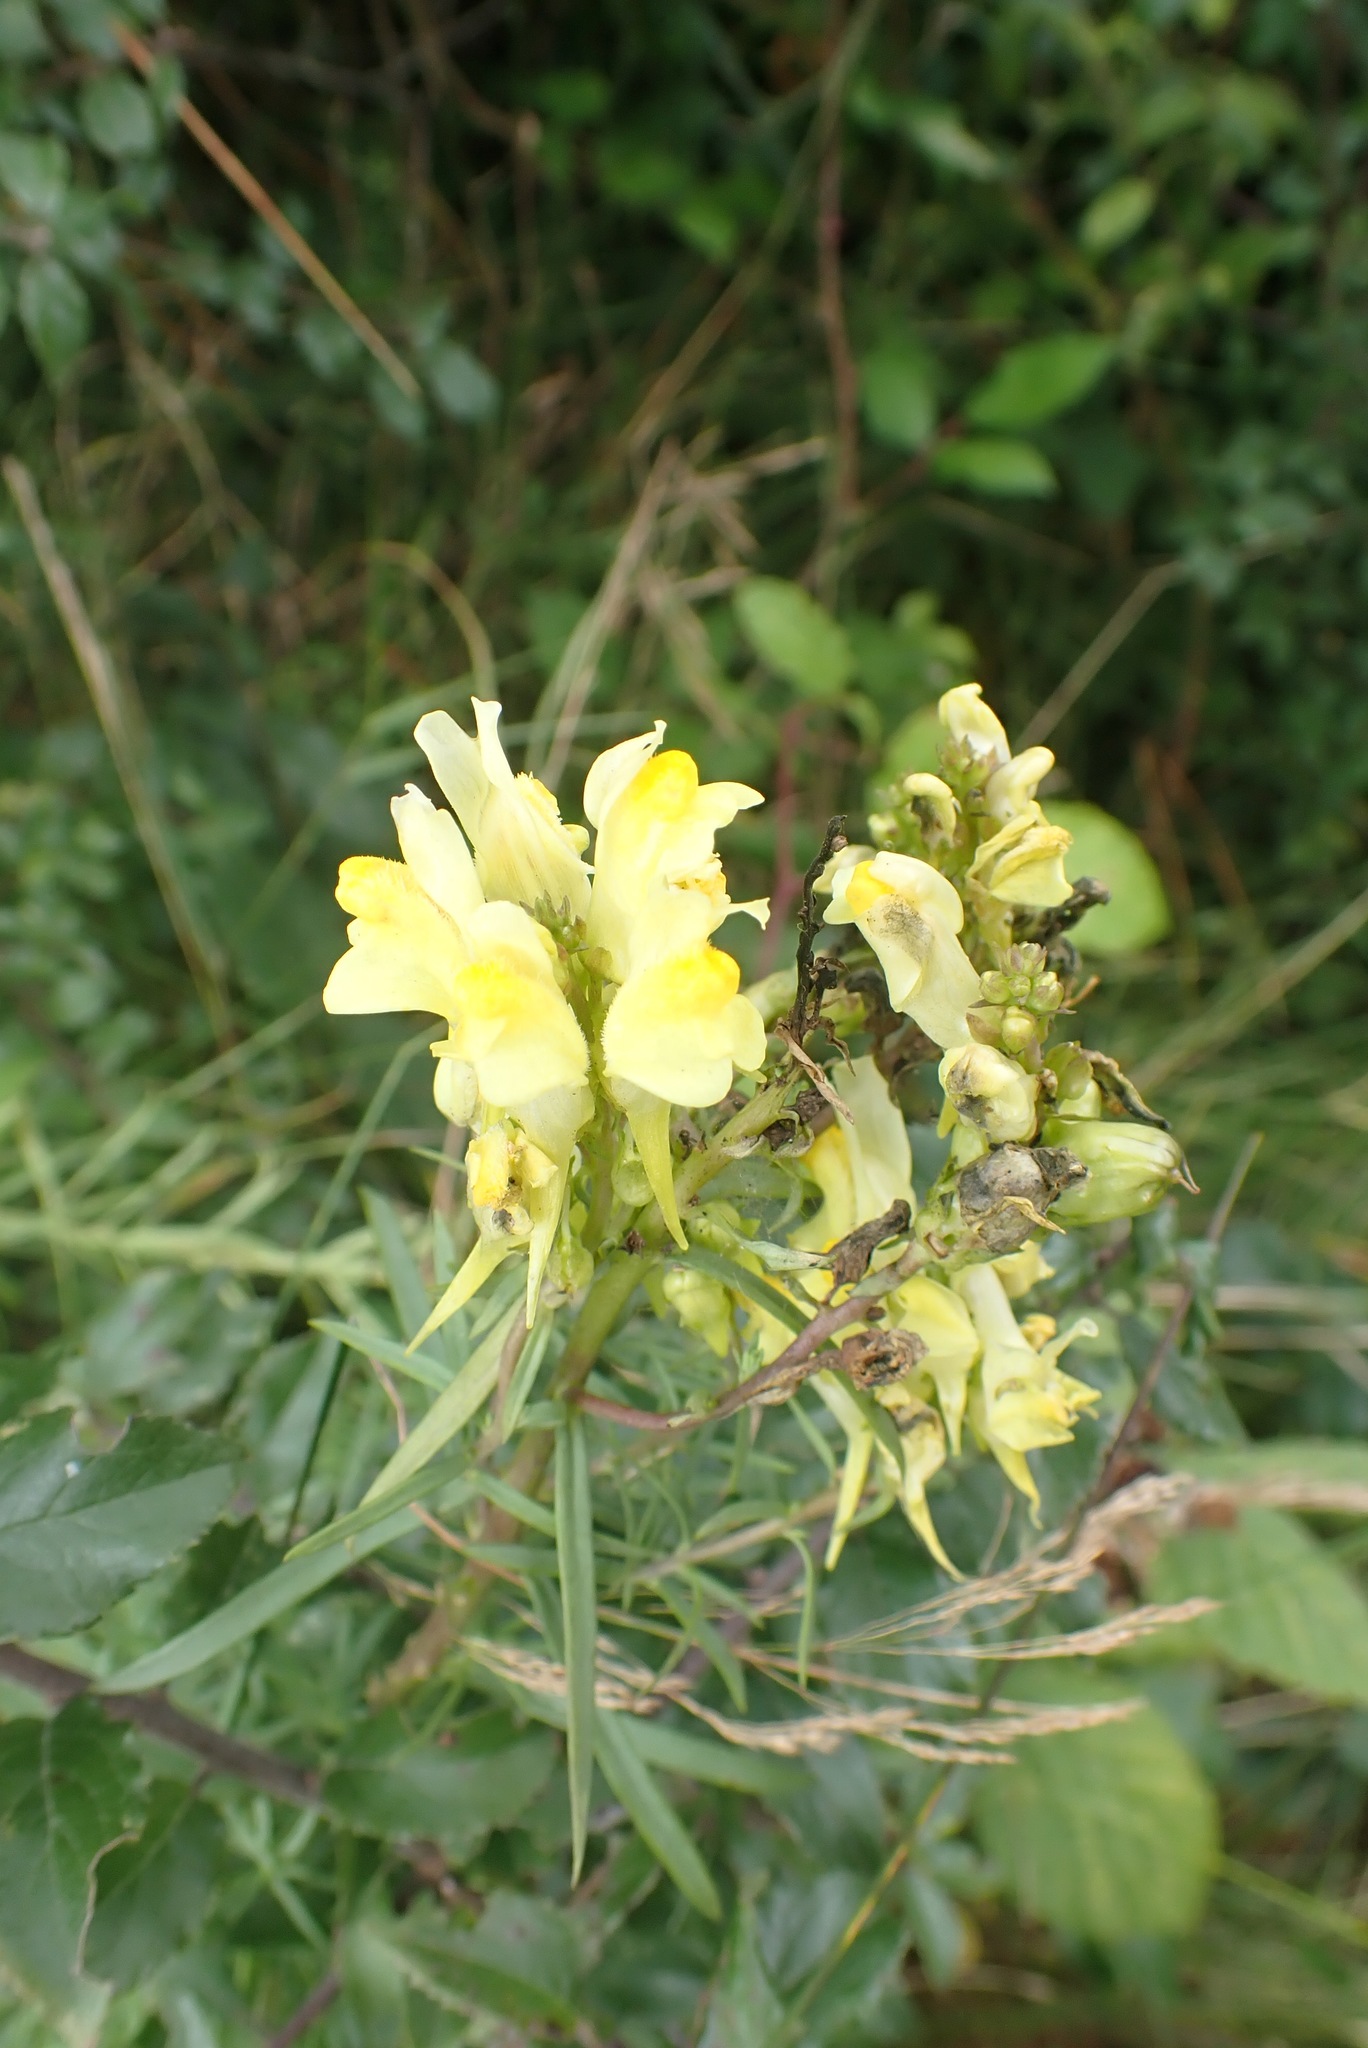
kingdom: Plantae
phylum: Tracheophyta
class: Magnoliopsida
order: Lamiales
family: Plantaginaceae
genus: Linaria
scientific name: Linaria vulgaris
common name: Butter and eggs
